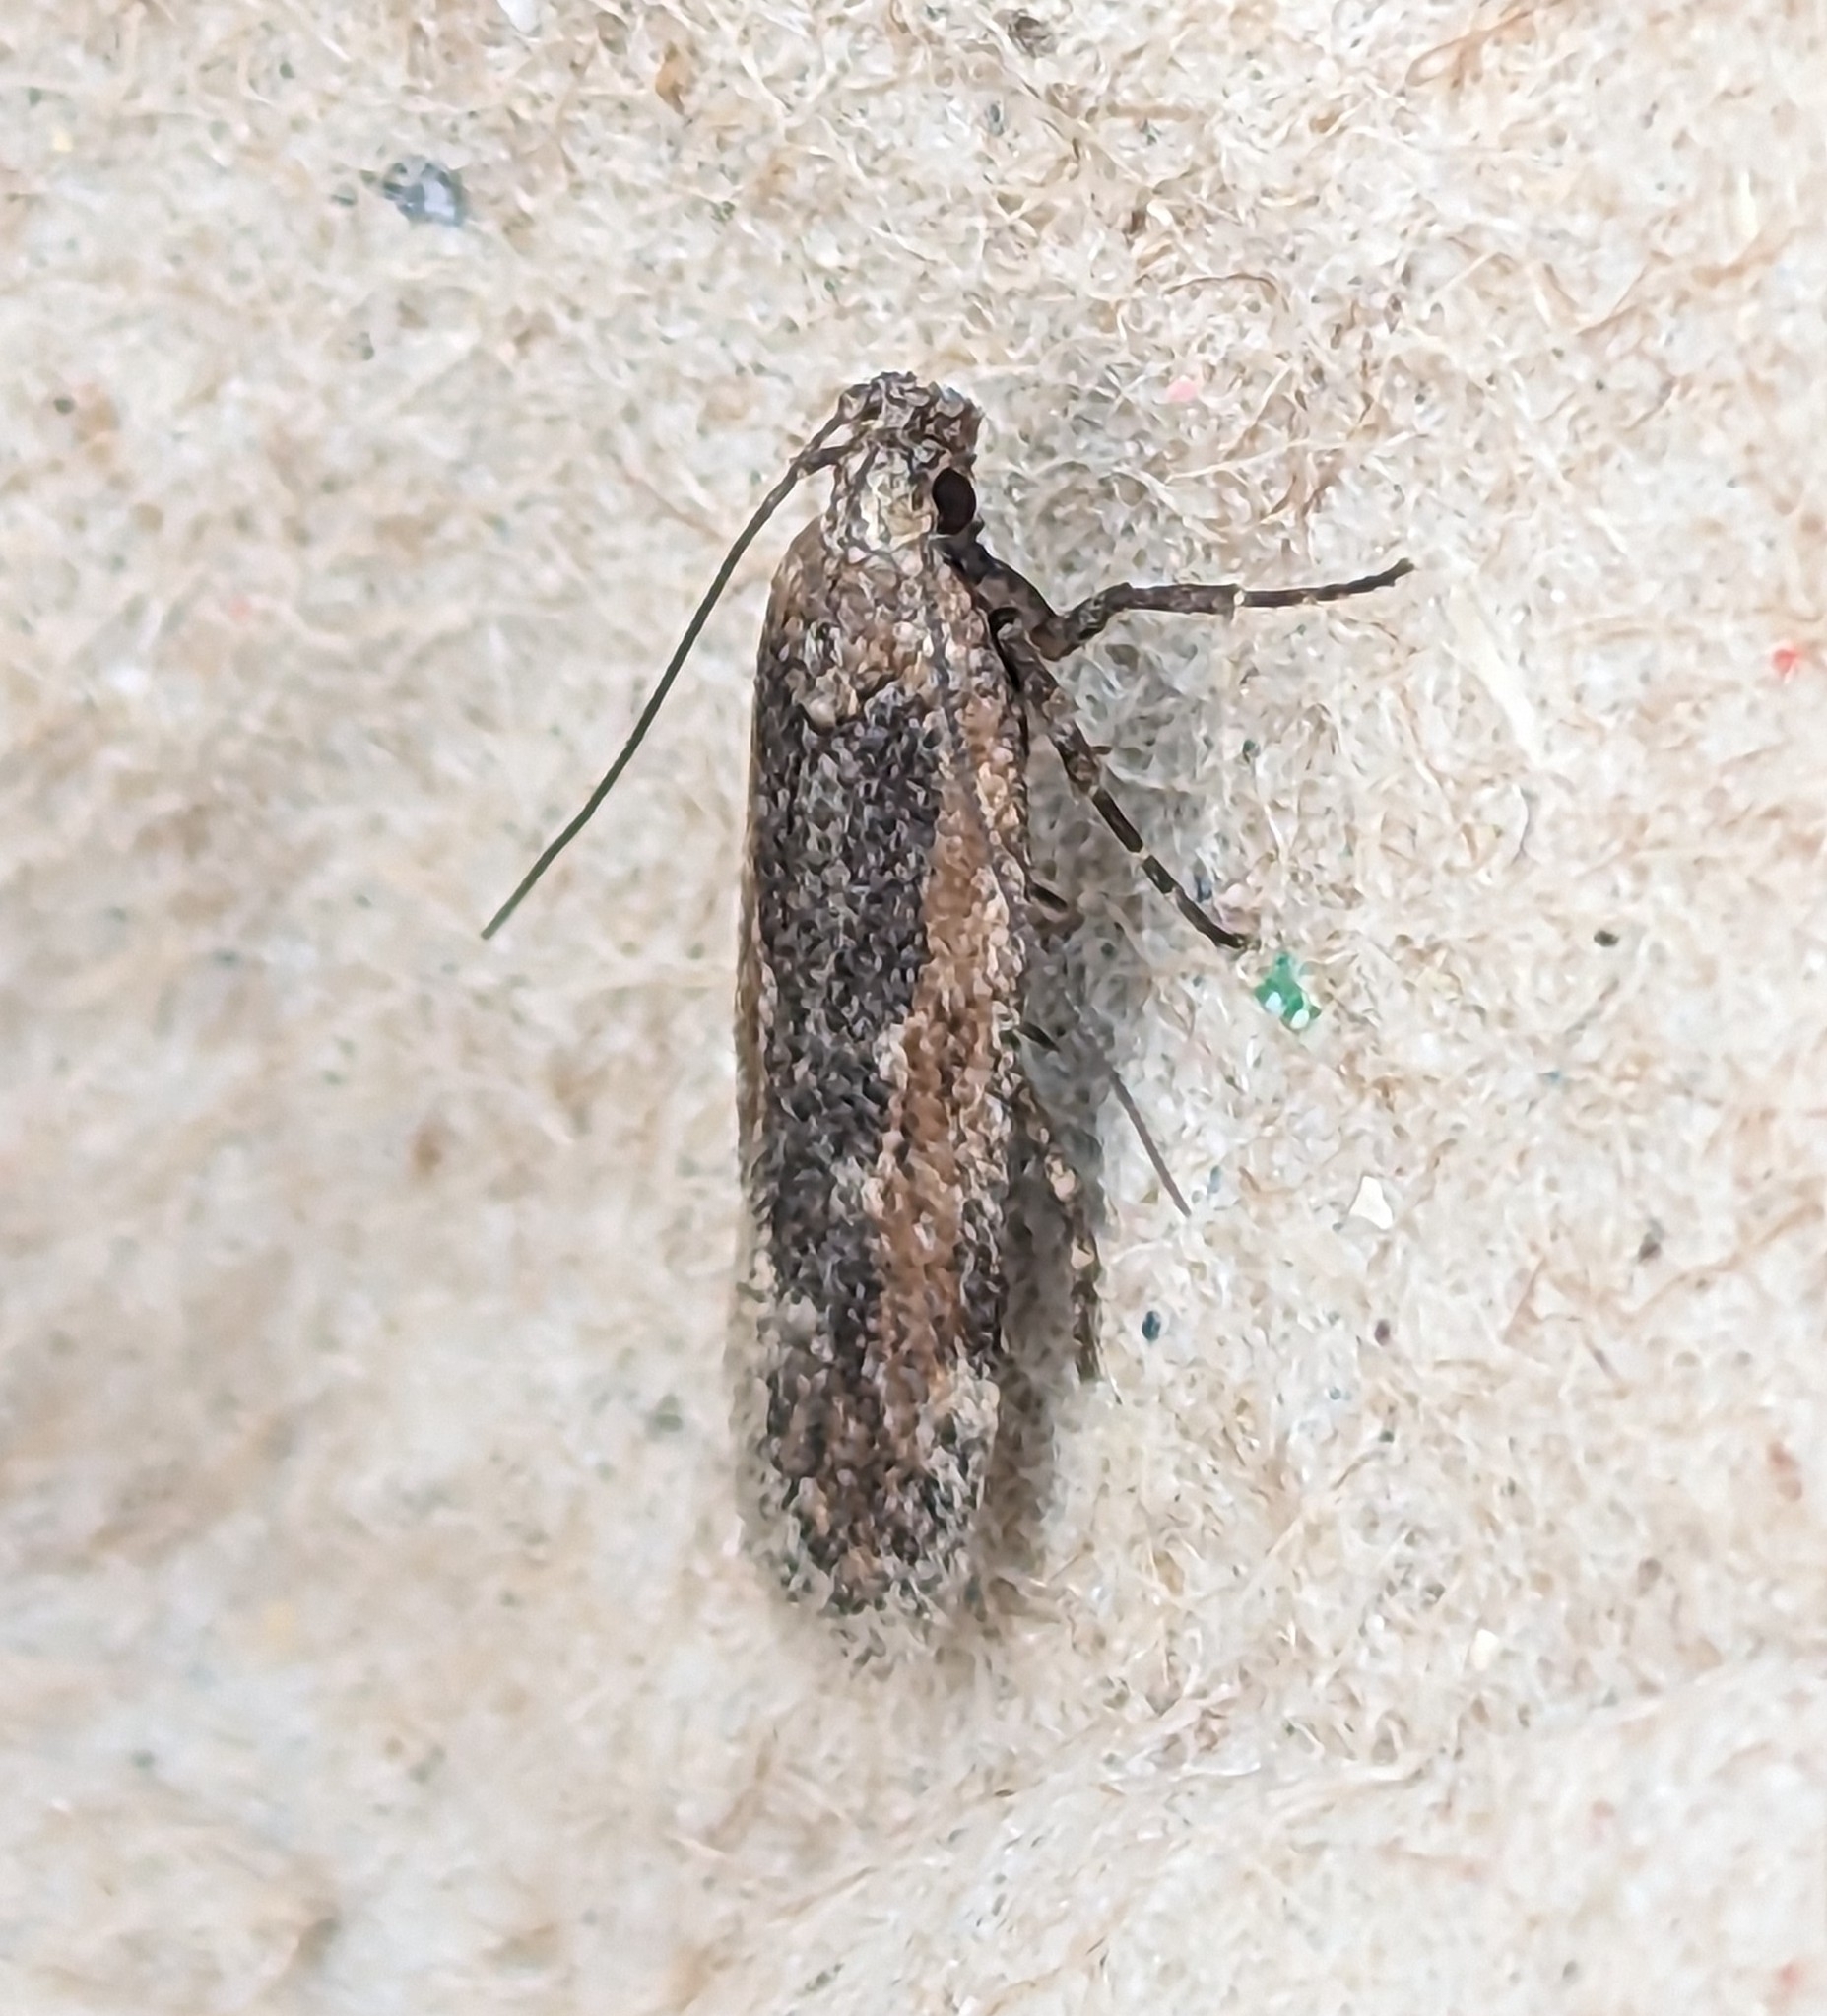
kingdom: Animalia
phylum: Arthropoda
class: Insecta
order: Lepidoptera
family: Gelechiidae
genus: Filatima
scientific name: Filatima epulatrix
